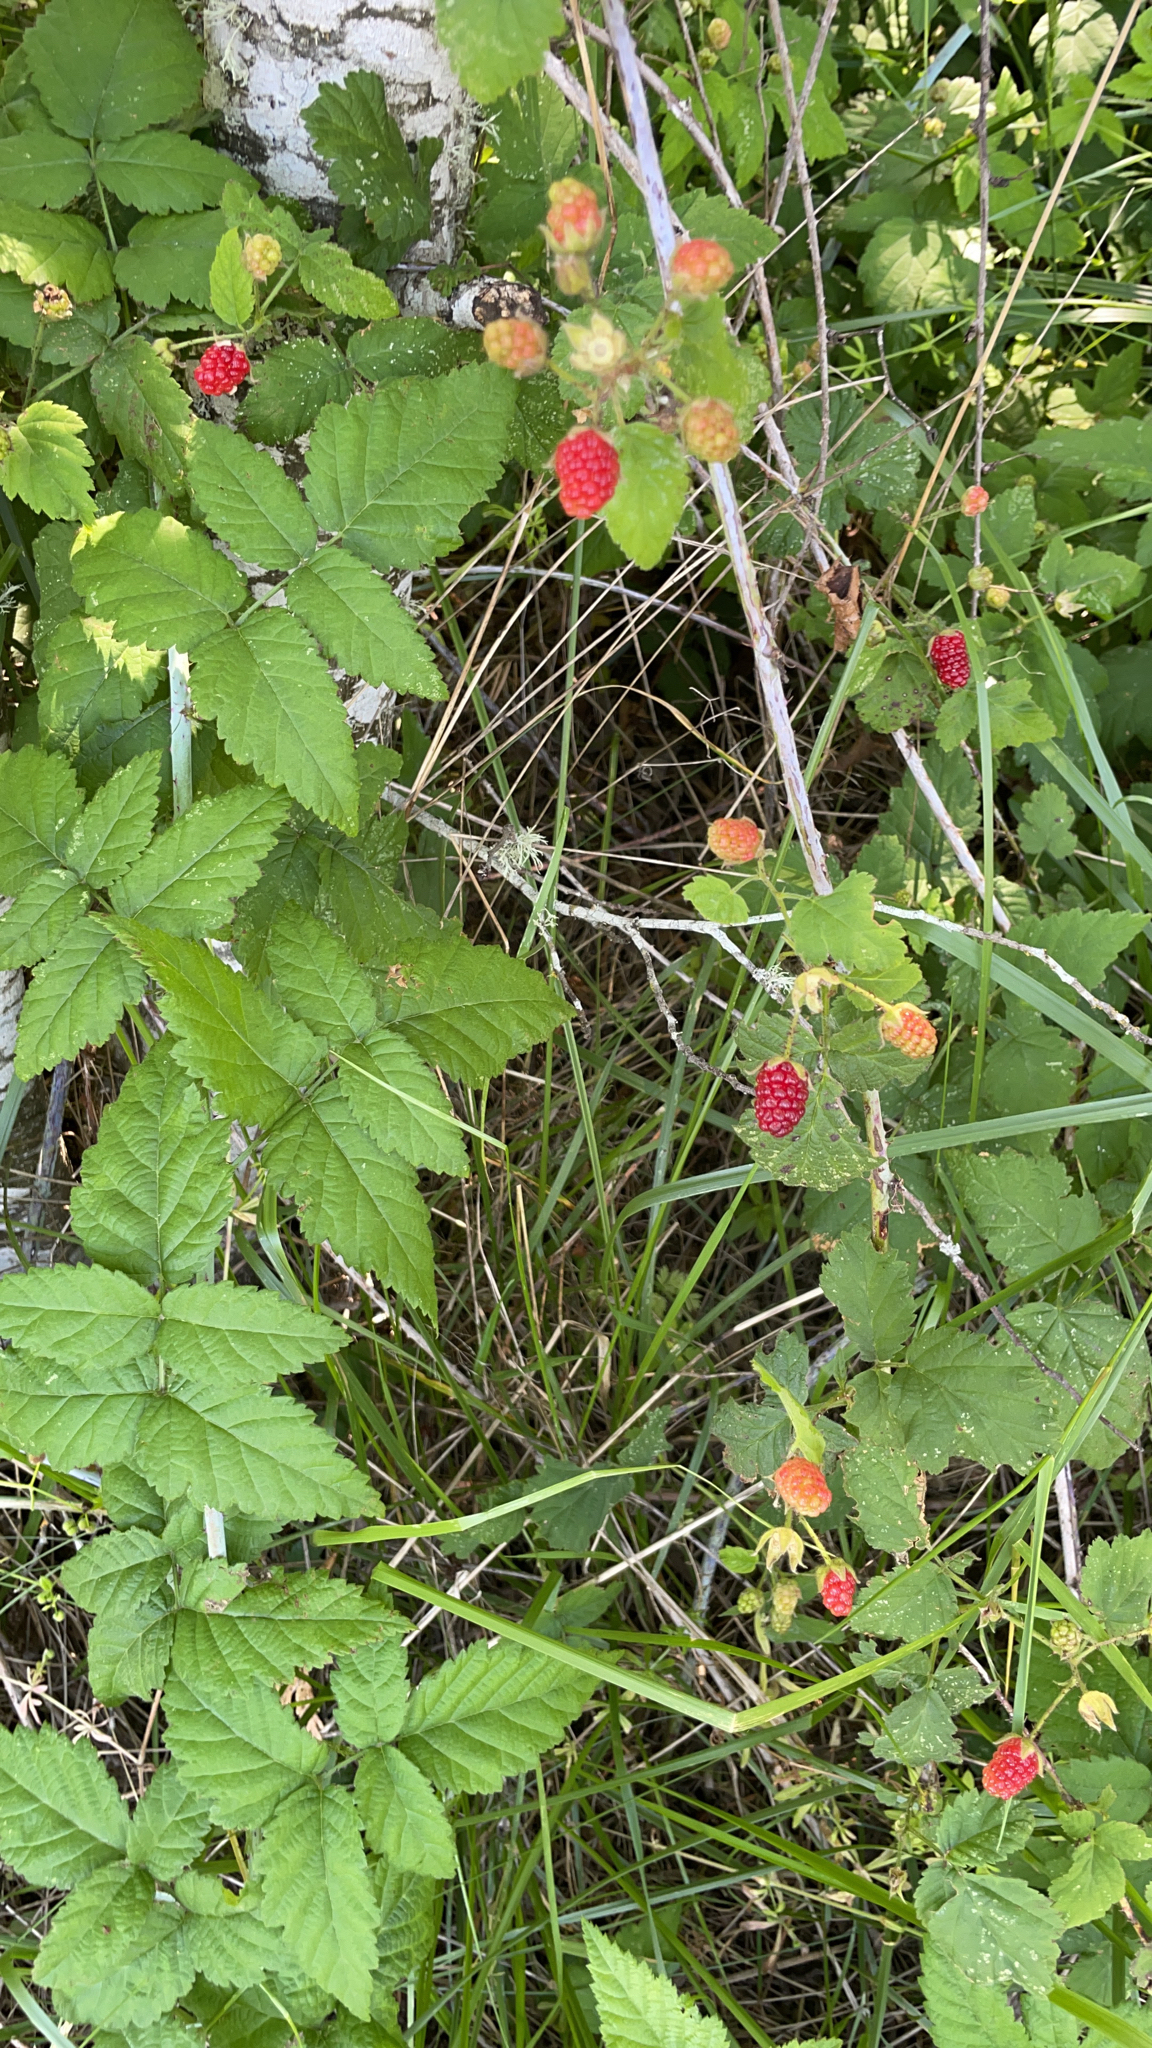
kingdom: Plantae
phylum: Tracheophyta
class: Magnoliopsida
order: Rosales
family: Rosaceae
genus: Rubus
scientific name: Rubus ursinus
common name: Pacific blackberry
